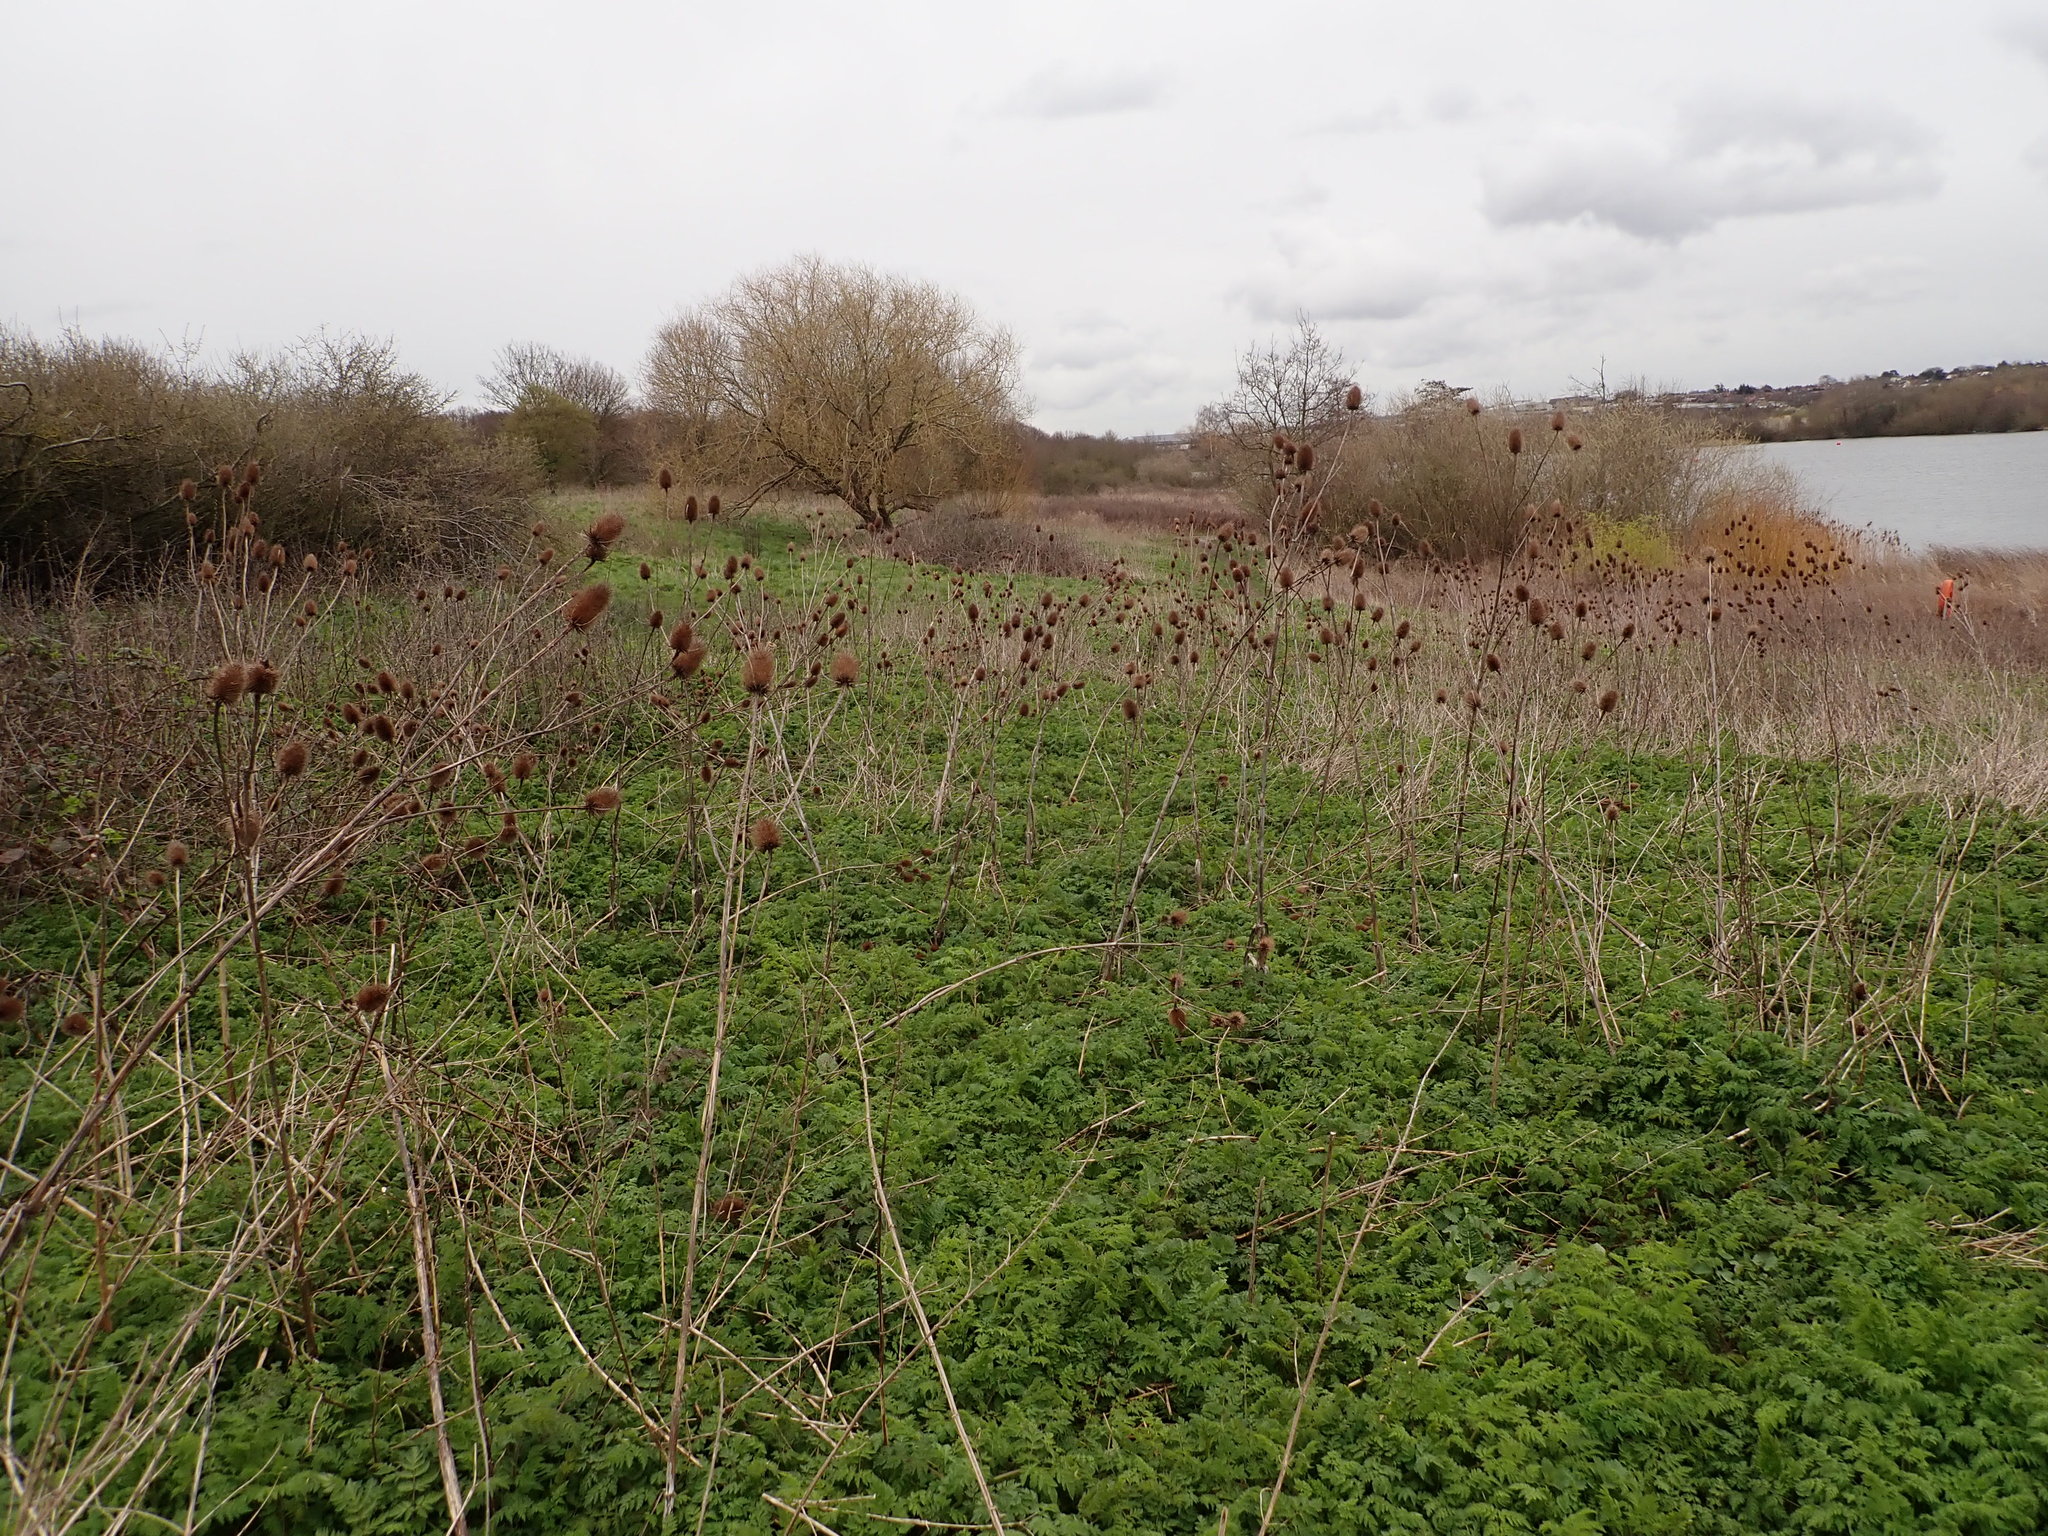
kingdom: Plantae
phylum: Tracheophyta
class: Magnoliopsida
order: Dipsacales
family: Caprifoliaceae
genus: Dipsacus
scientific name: Dipsacus fullonum
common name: Teasel
